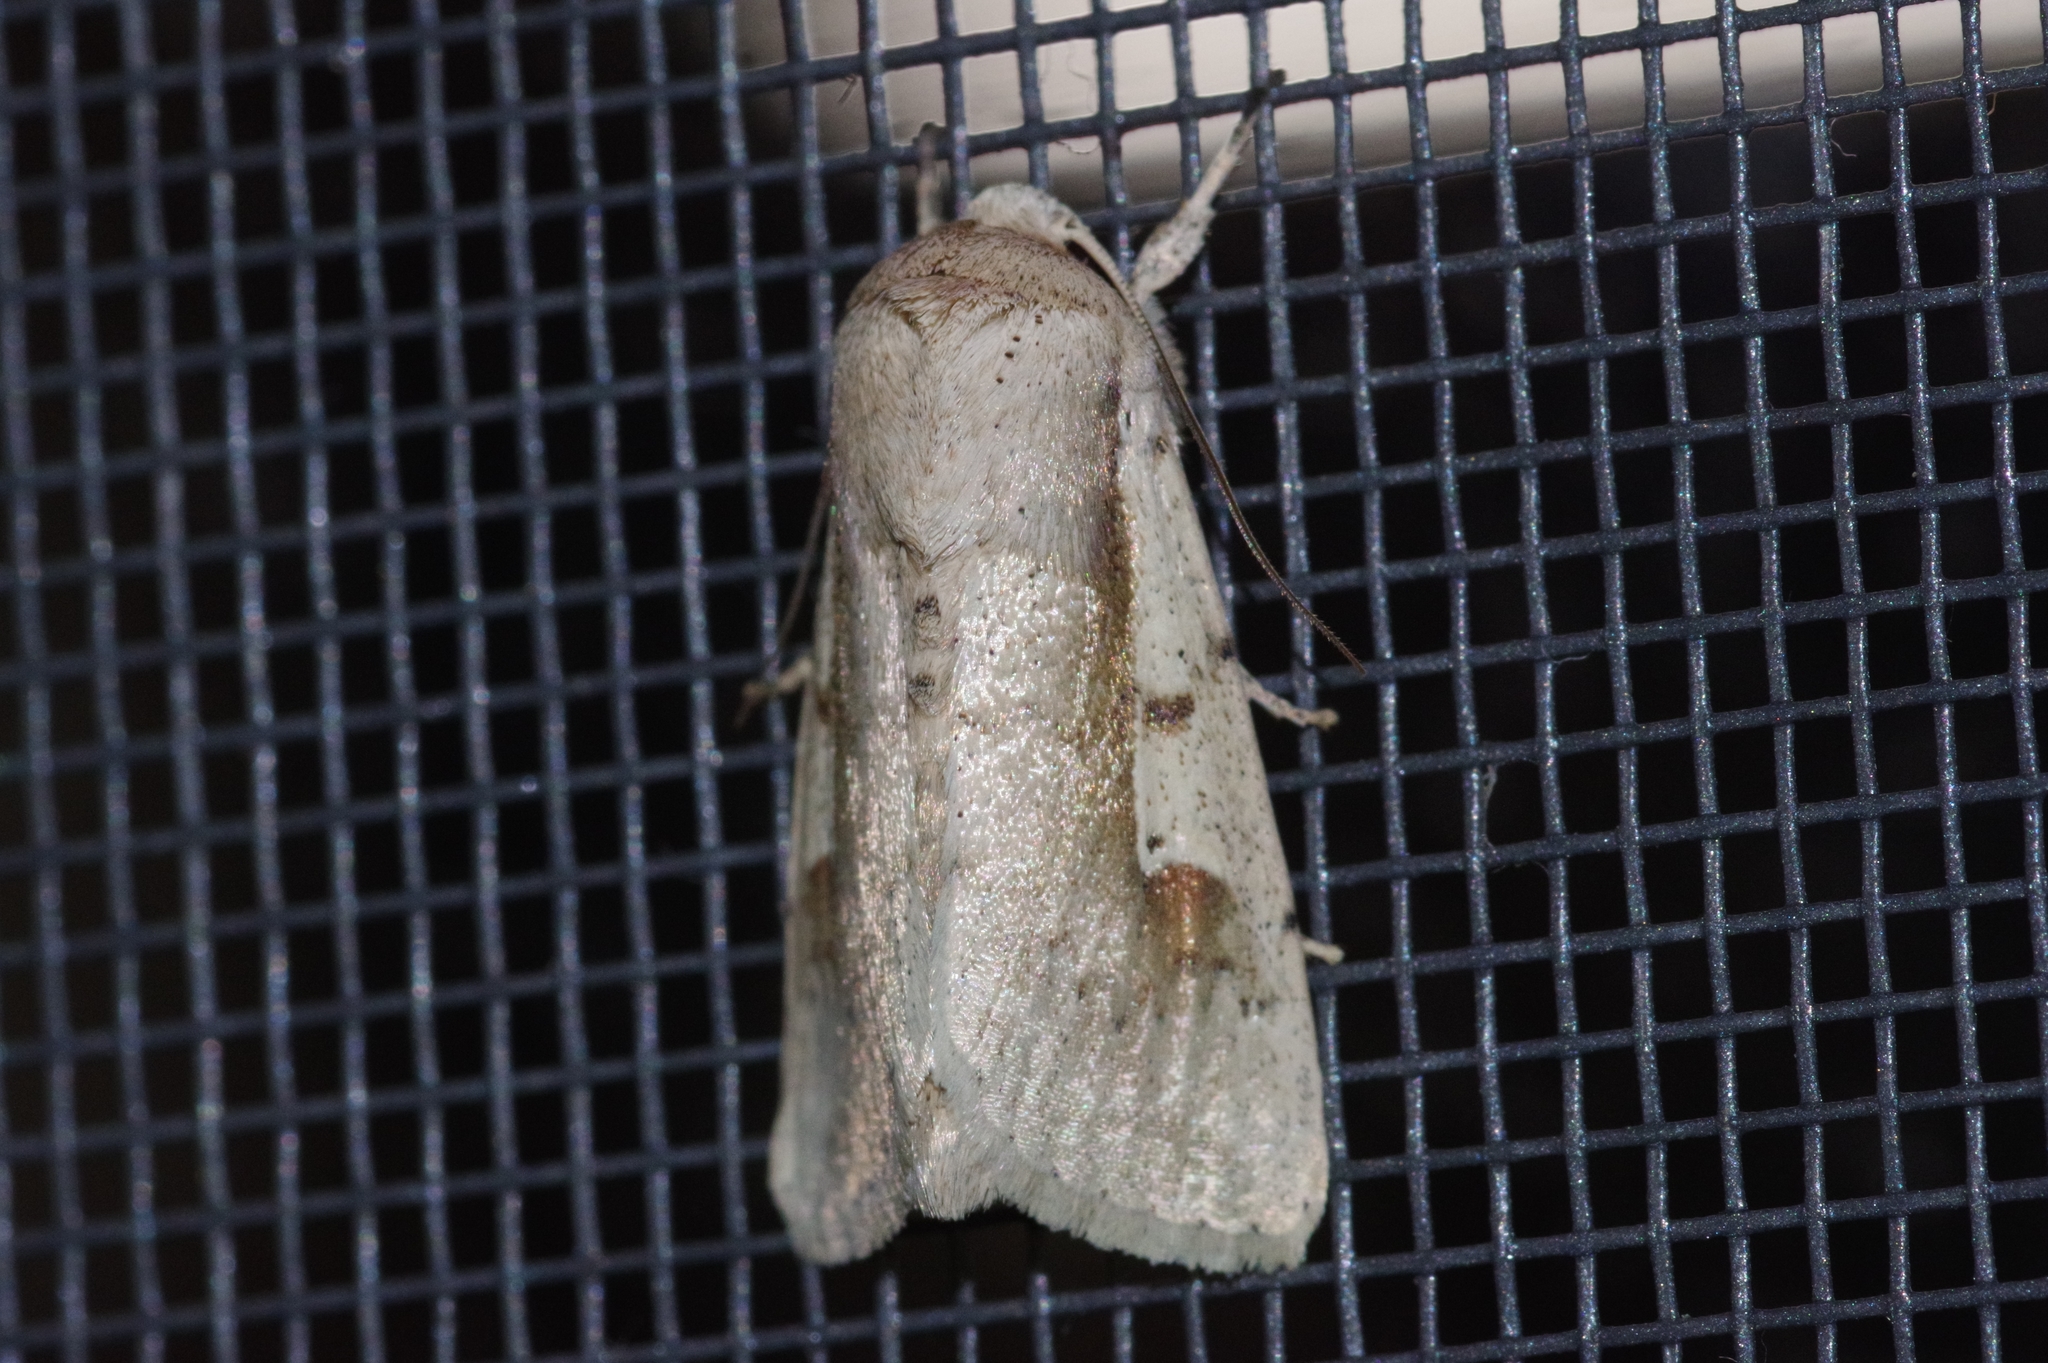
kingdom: Animalia
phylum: Arthropoda
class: Insecta
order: Lepidoptera
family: Noctuidae
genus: Leucania
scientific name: Leucania yu
